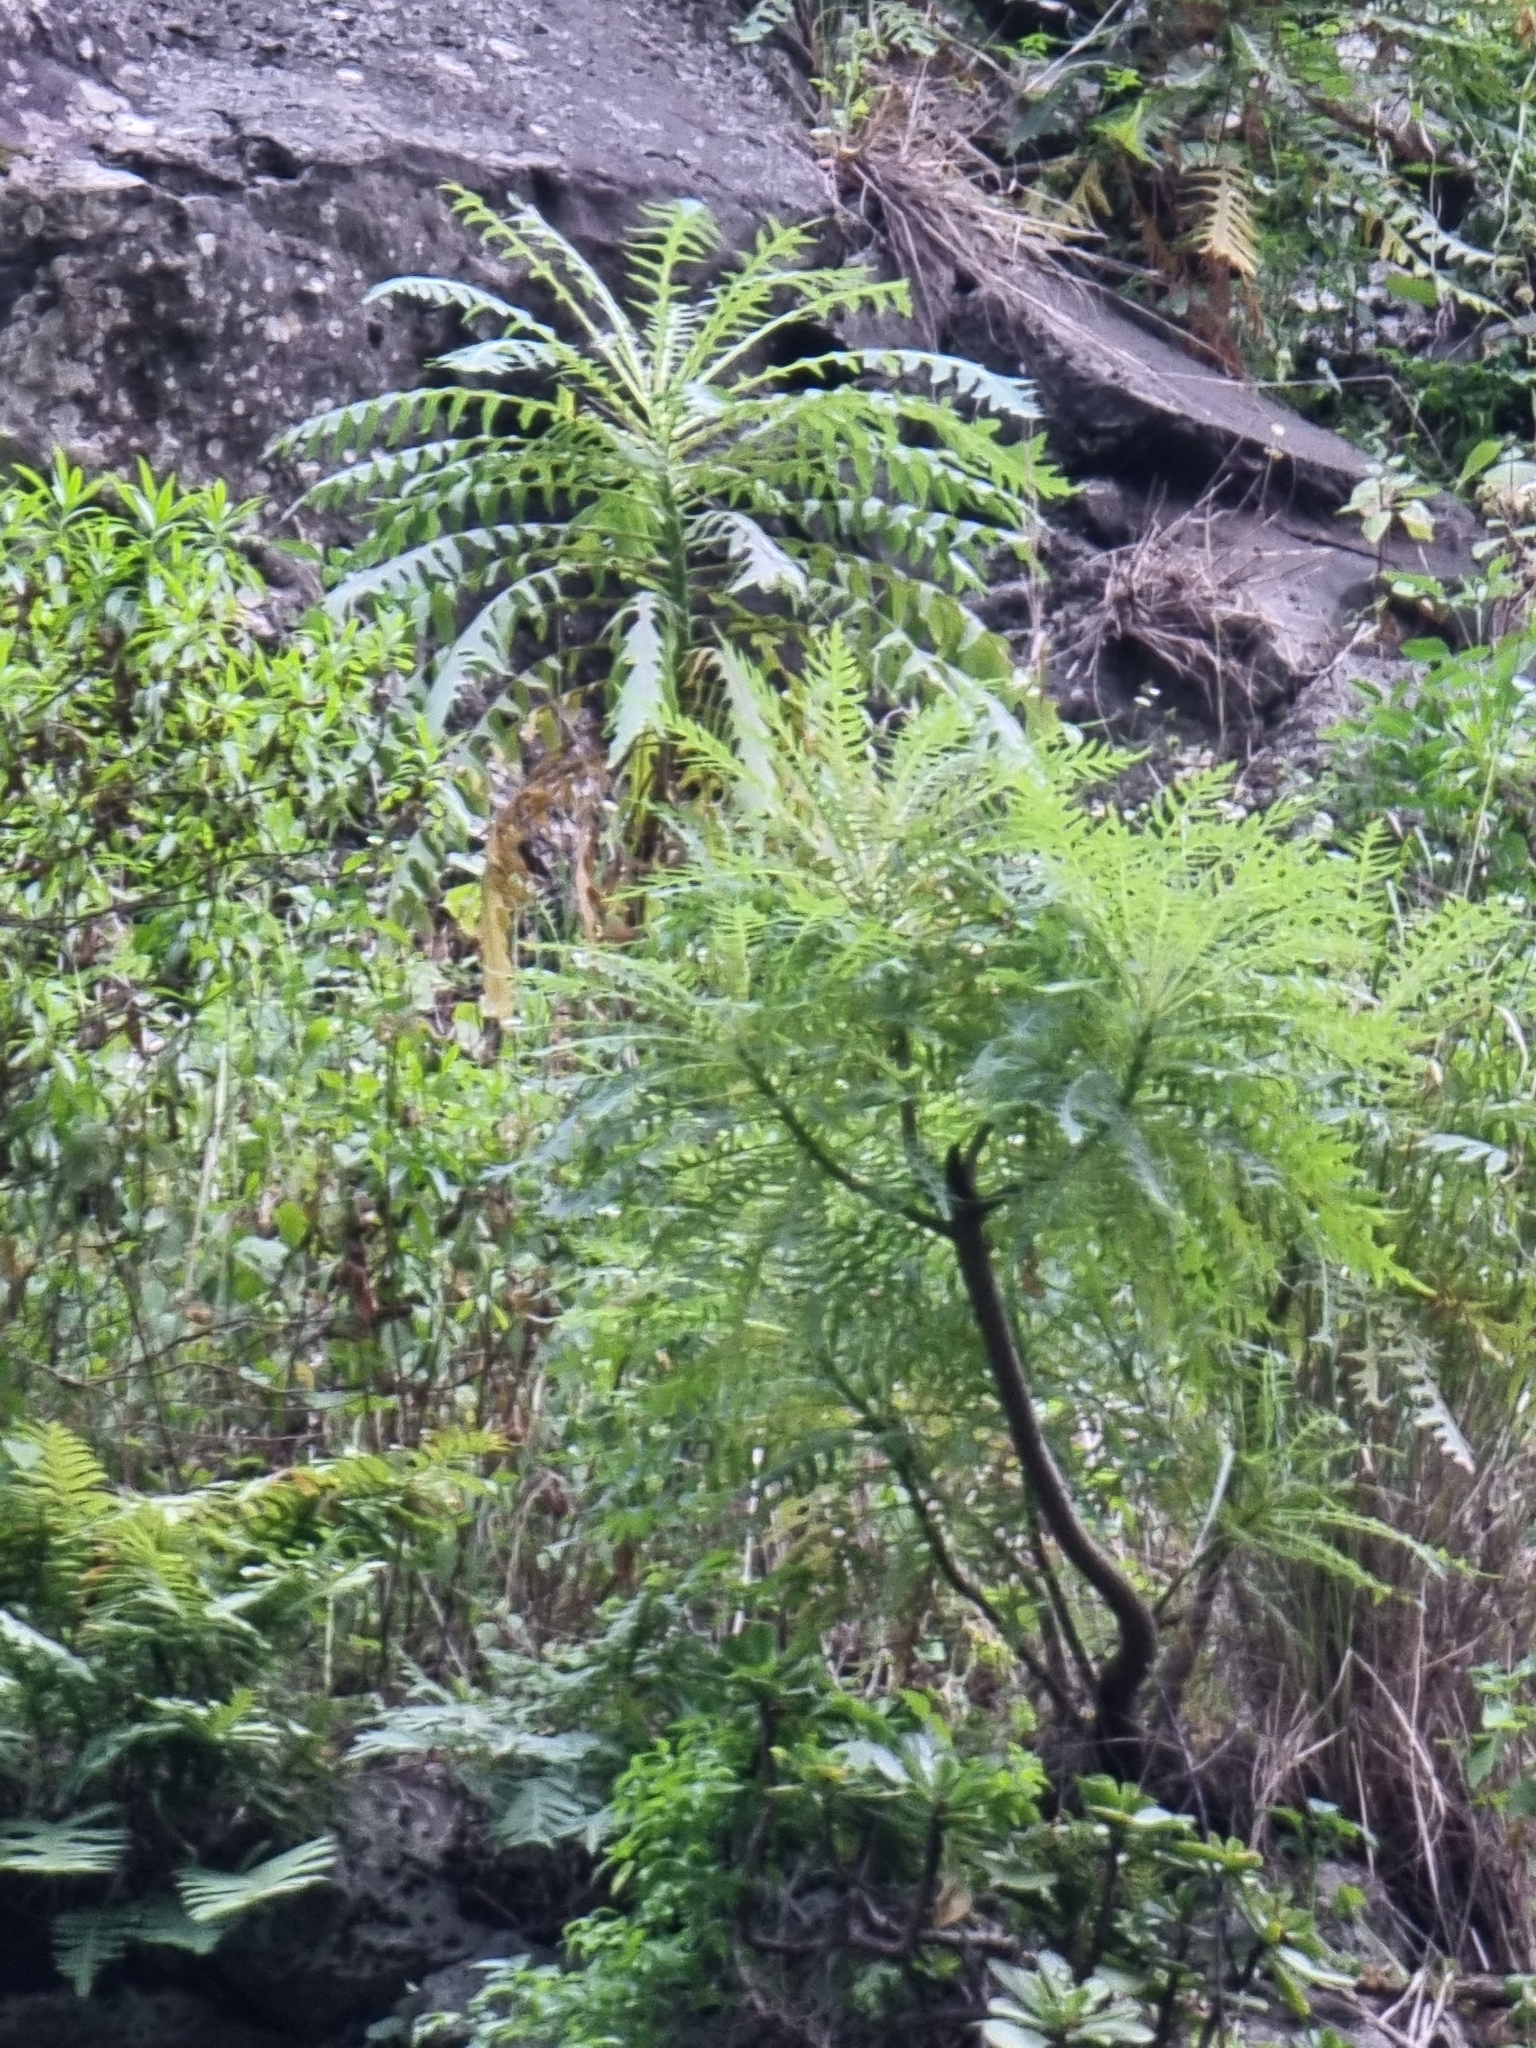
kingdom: Plantae
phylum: Tracheophyta
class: Magnoliopsida
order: Asterales
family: Asteraceae
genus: Sonchus
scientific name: Sonchus pinnatus
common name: Wing-leaved sow-thistle
